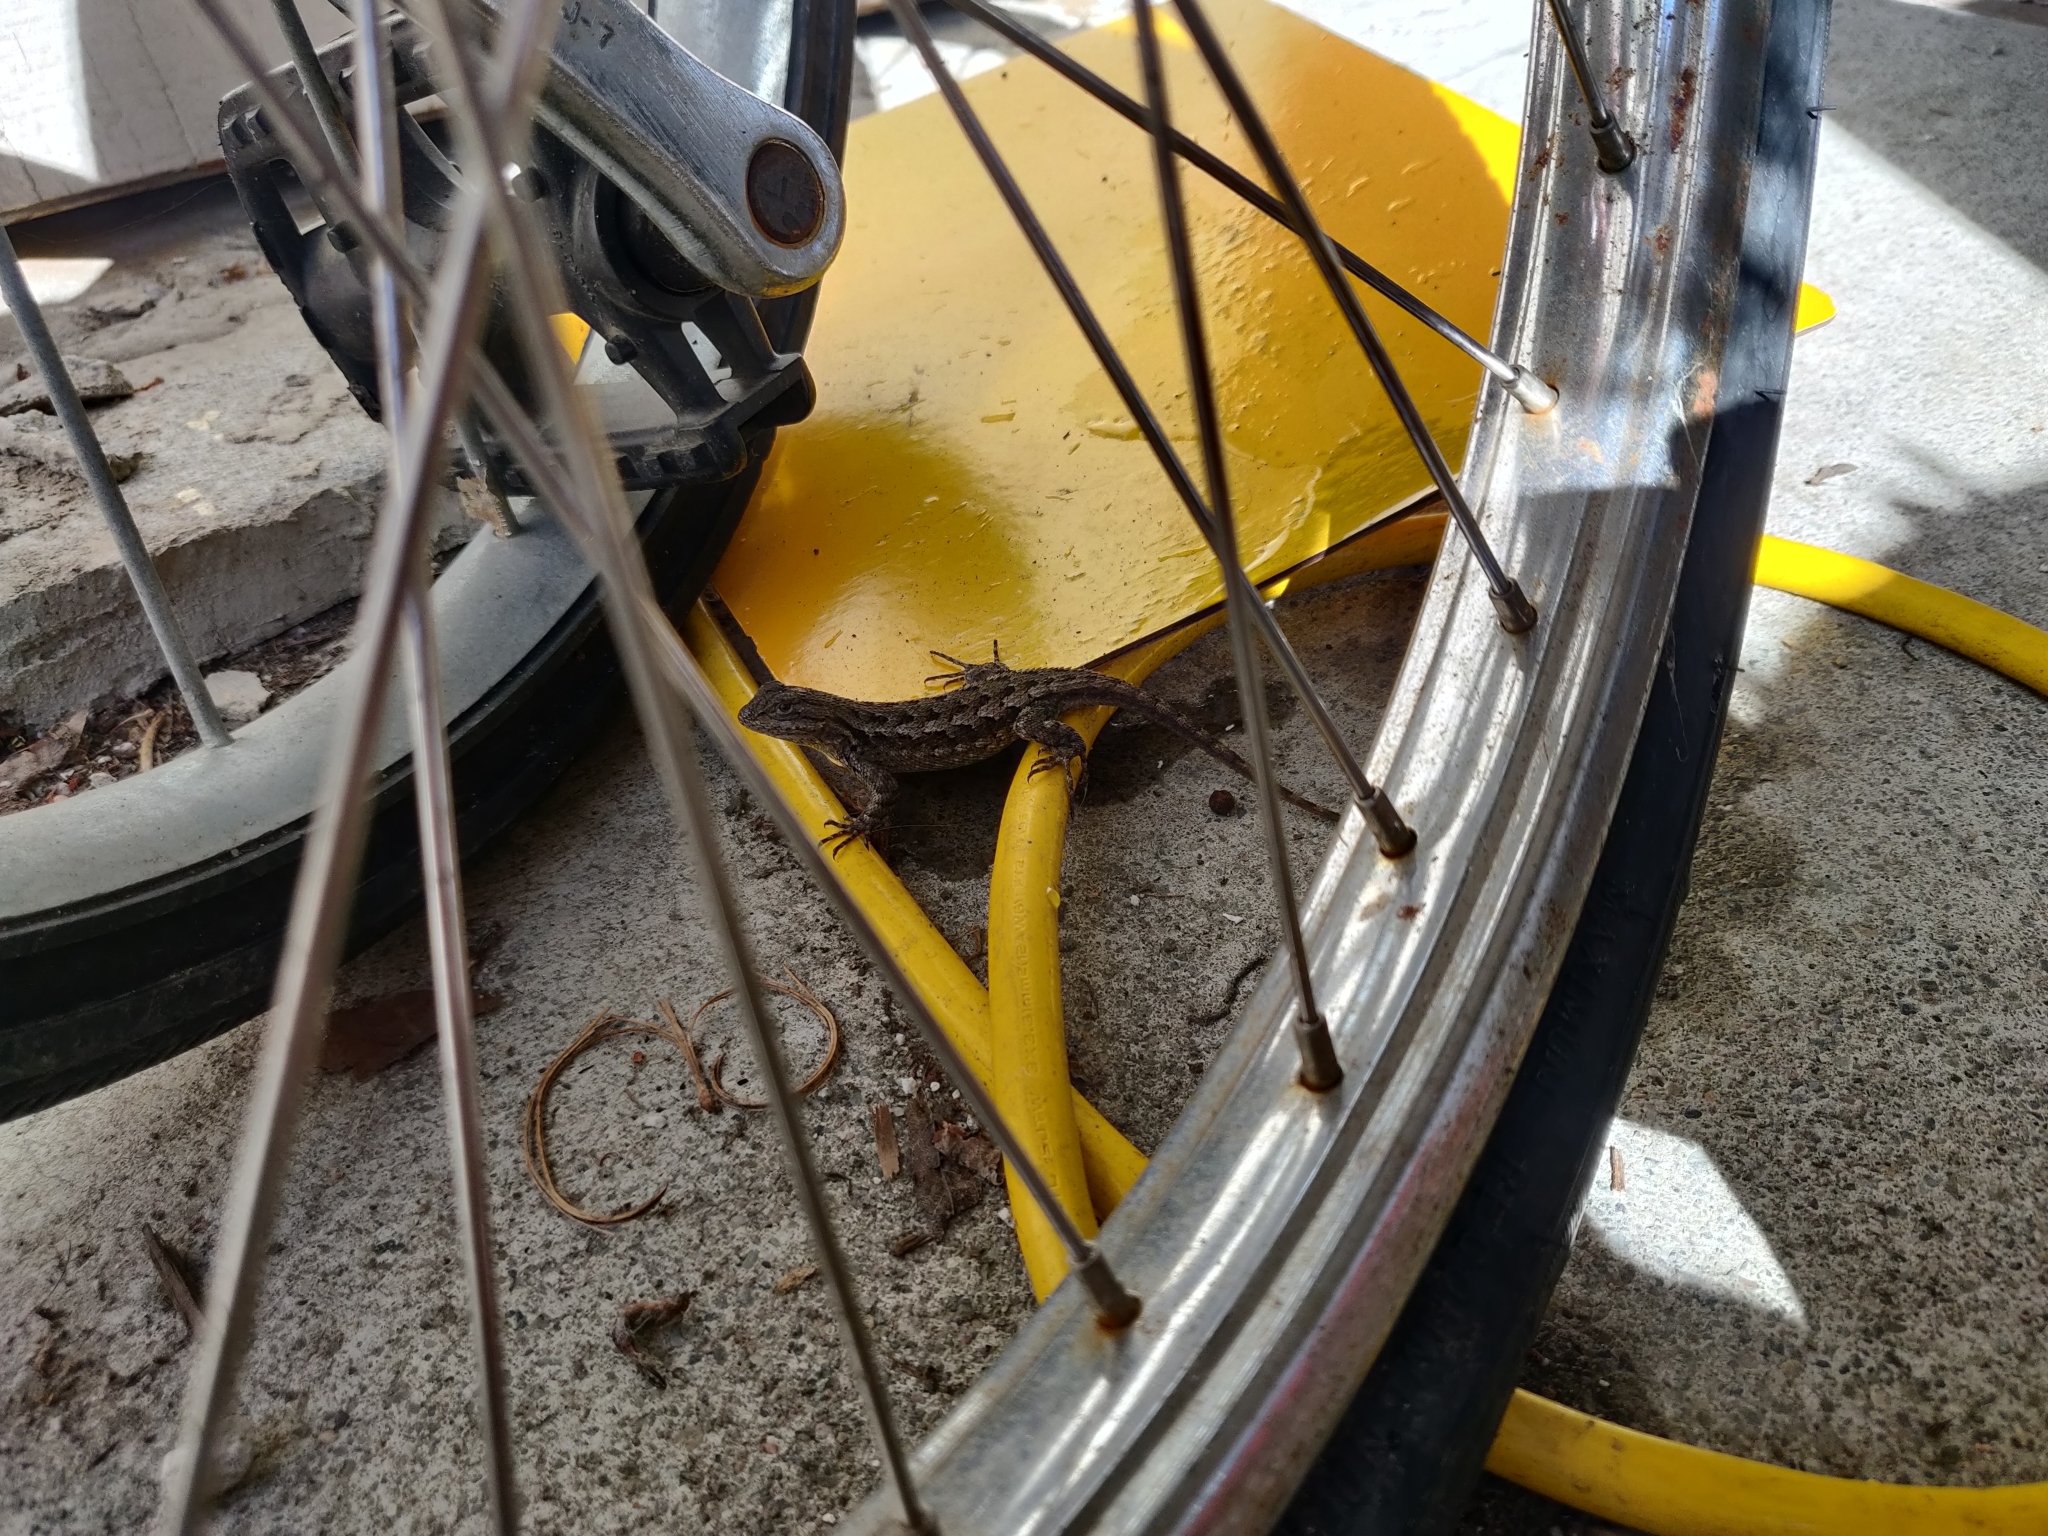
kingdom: Animalia
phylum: Chordata
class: Squamata
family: Phrynosomatidae
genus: Sceloporus
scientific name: Sceloporus occidentalis
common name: Western fence lizard
